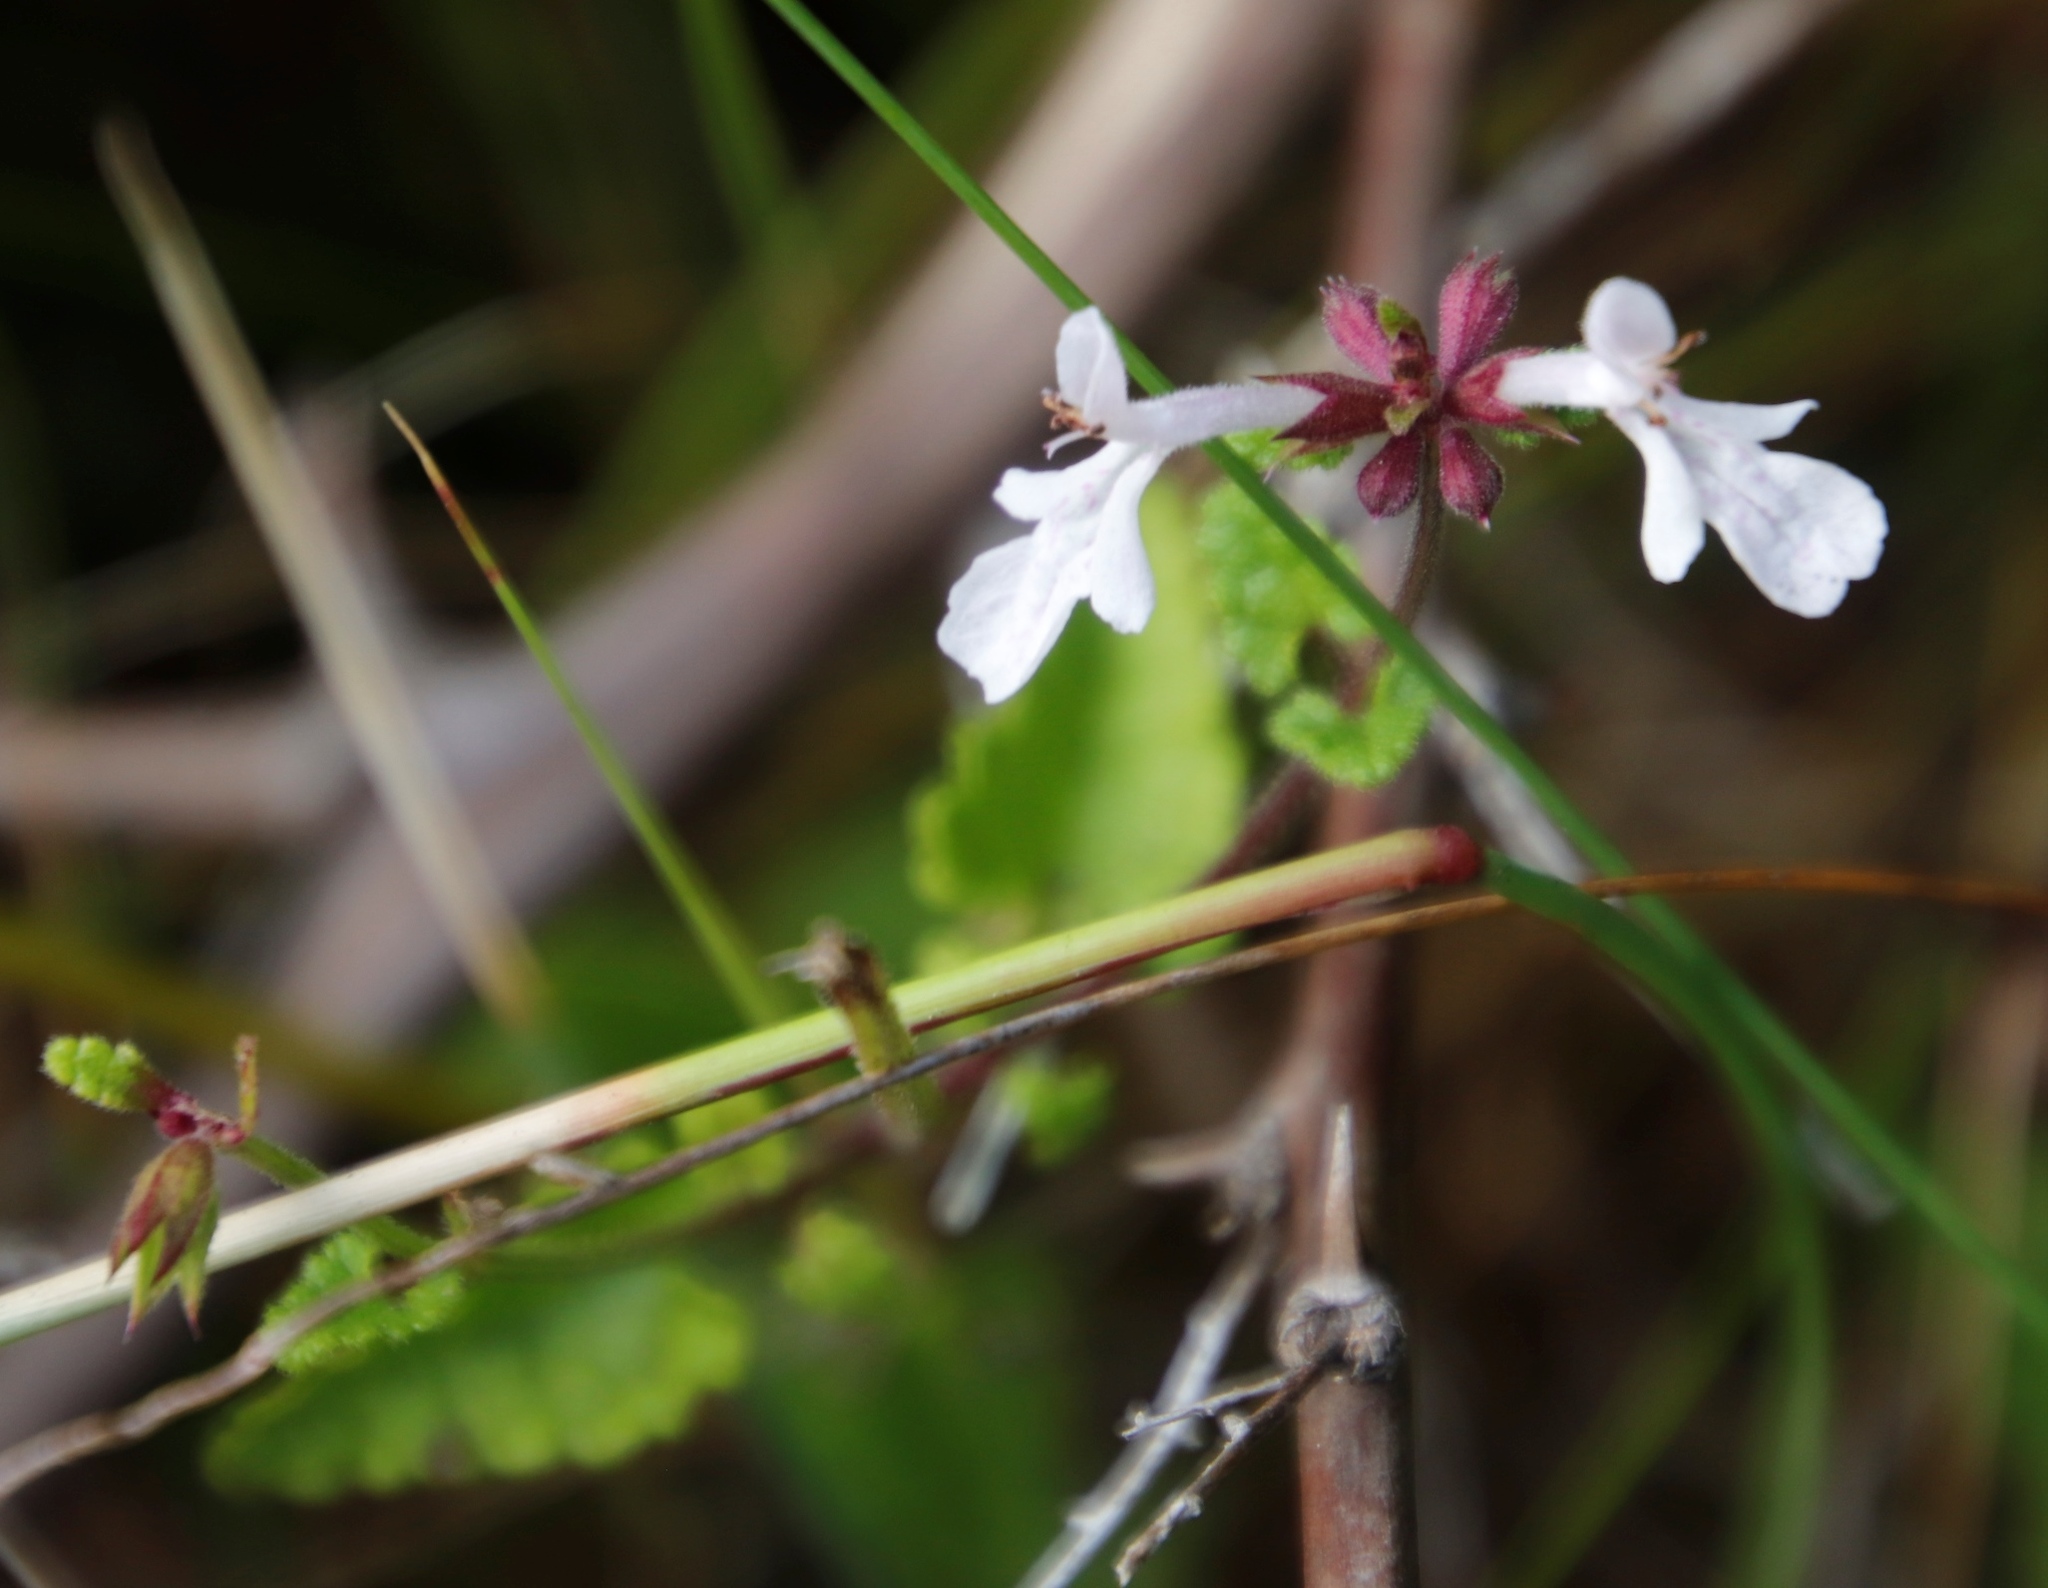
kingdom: Plantae
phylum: Tracheophyta
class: Magnoliopsida
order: Lamiales
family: Lamiaceae
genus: Stachys
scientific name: Stachys aethiopica
